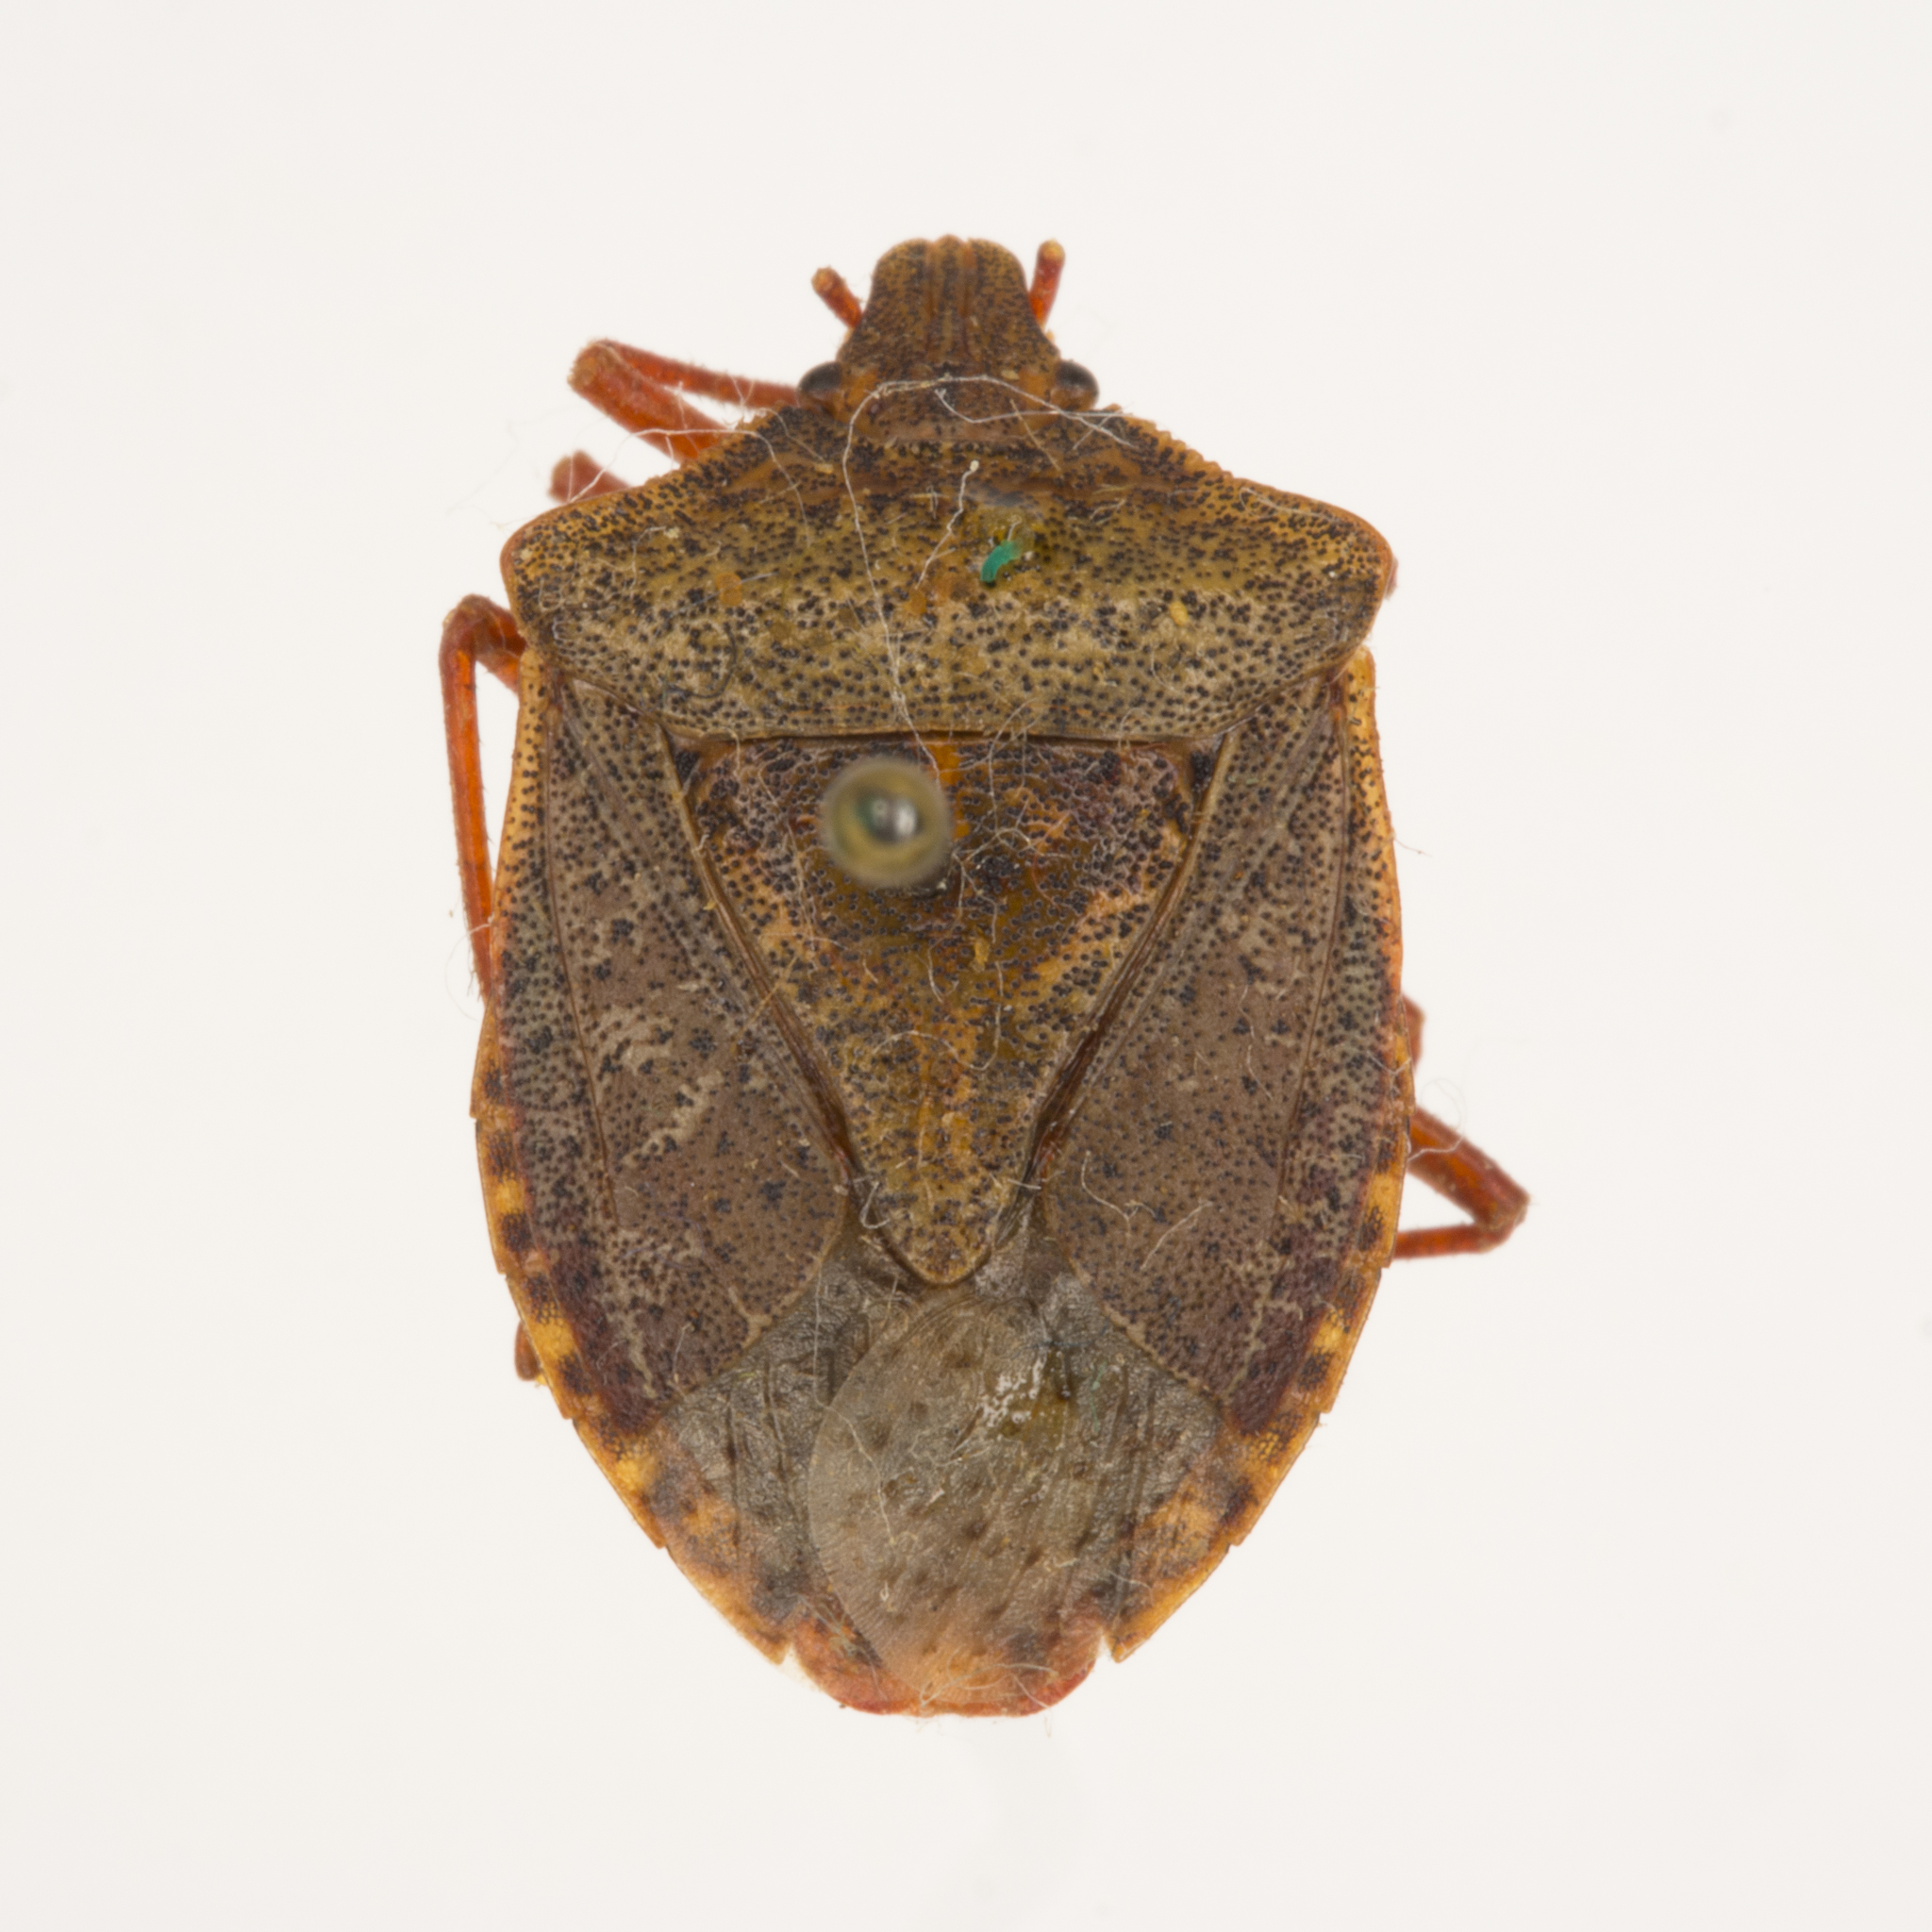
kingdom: Animalia
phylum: Arthropoda
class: Insecta
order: Hemiptera
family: Pentatomidae
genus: Euschistus
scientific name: Euschistus inflatus
